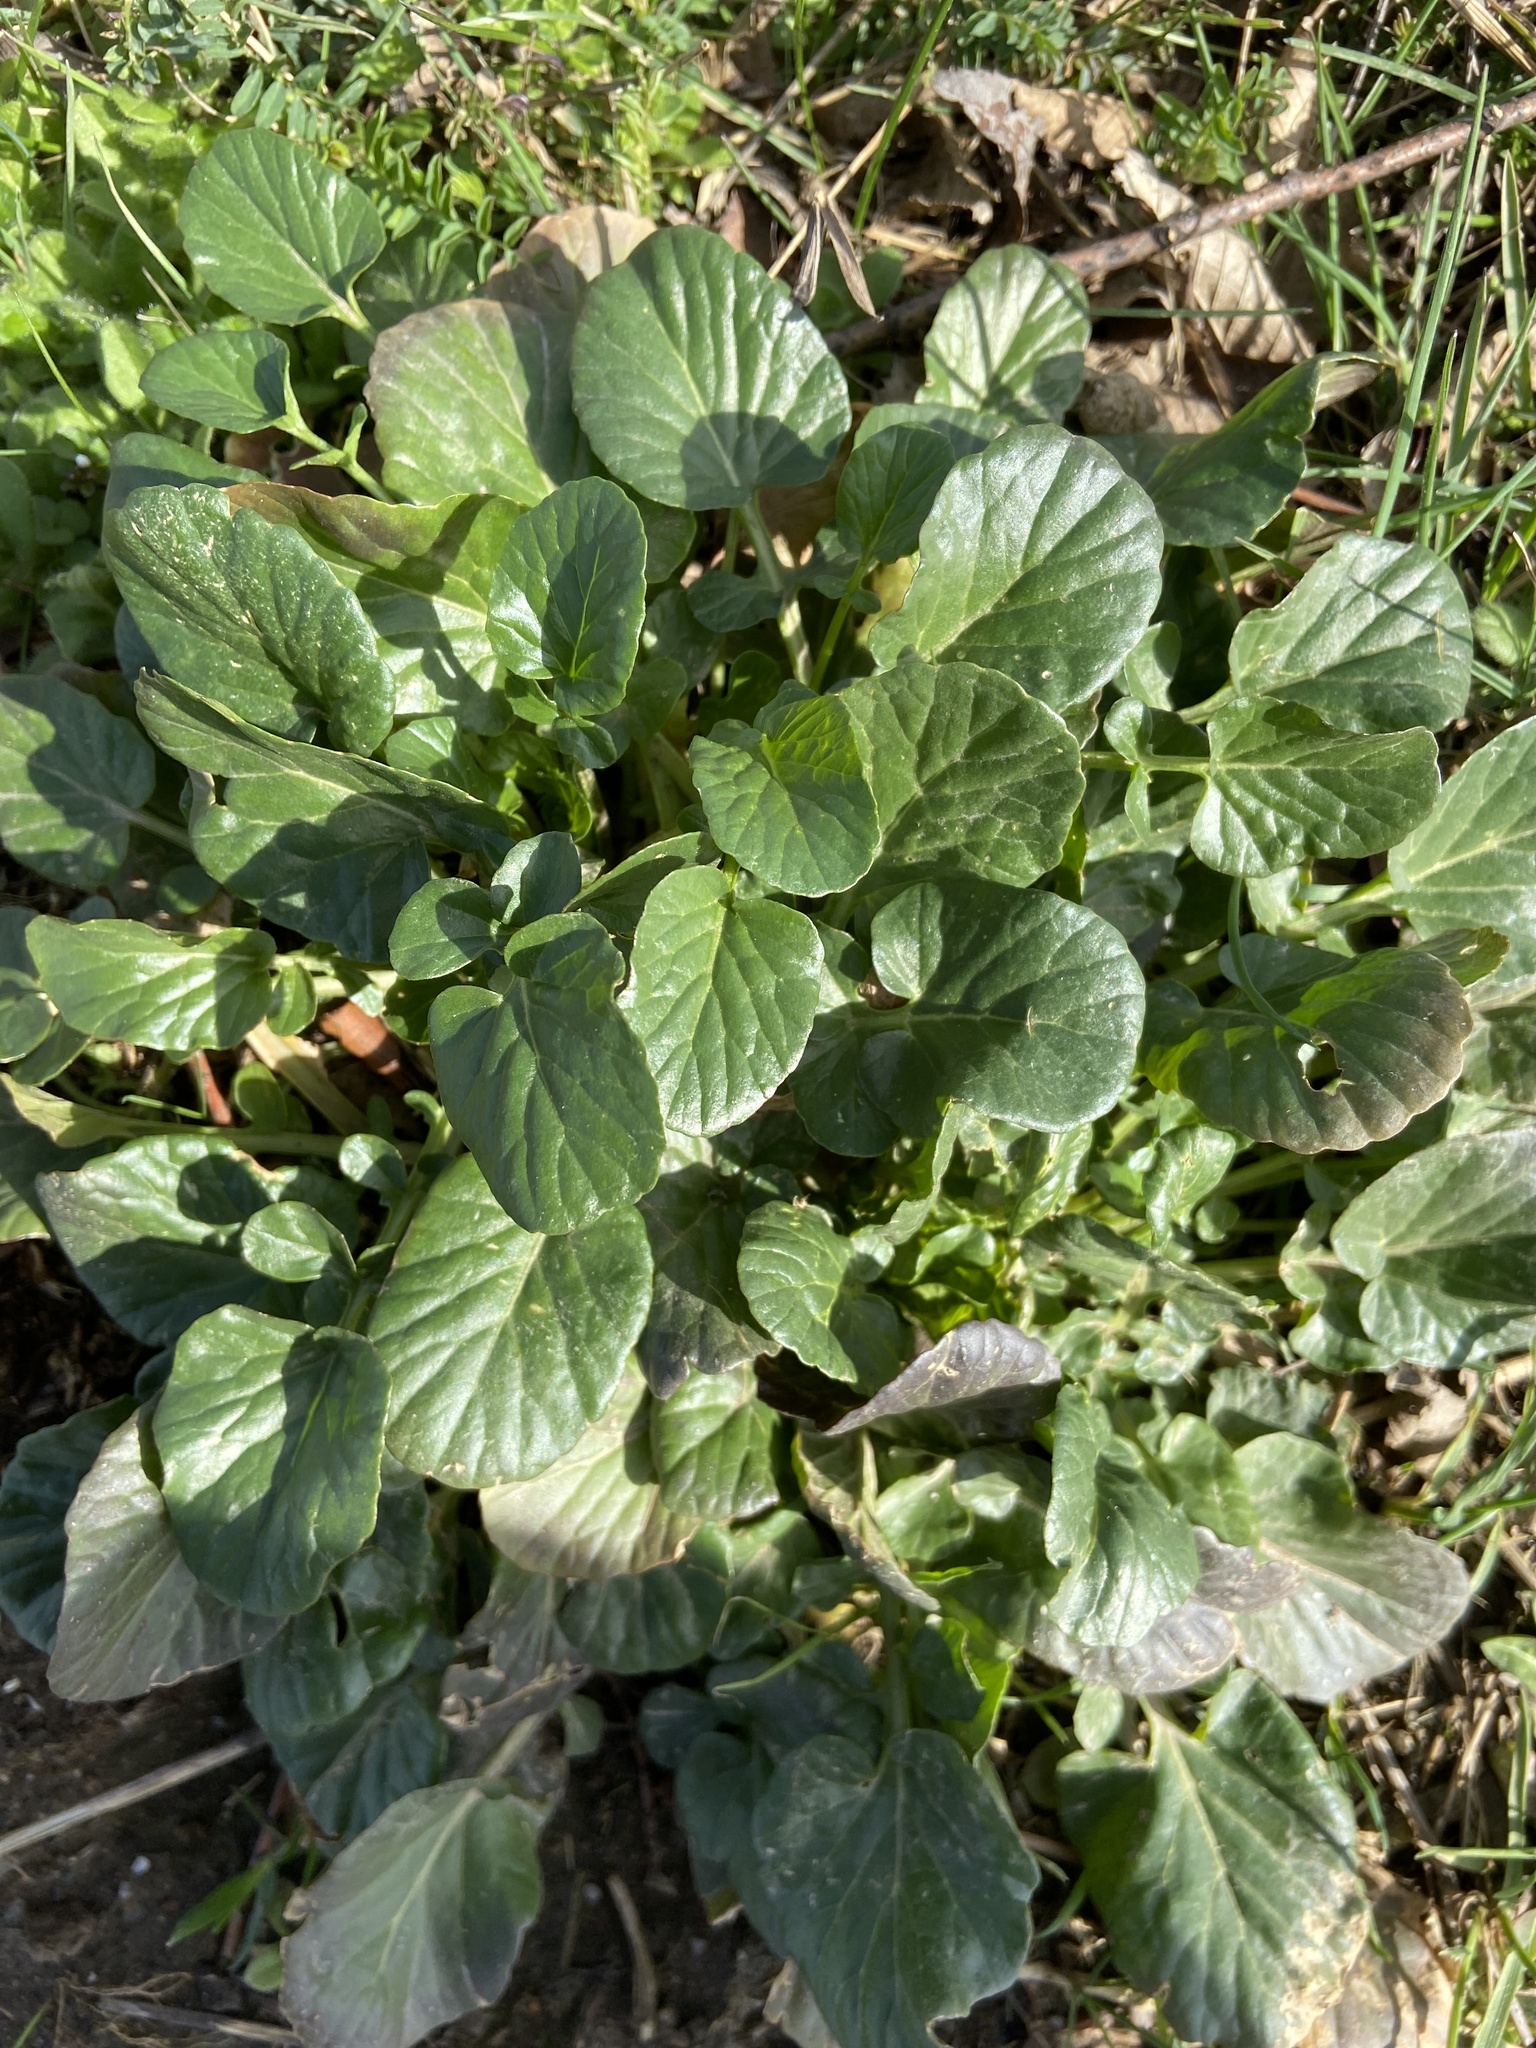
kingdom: Plantae
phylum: Tracheophyta
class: Magnoliopsida
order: Brassicales
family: Brassicaceae
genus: Barbarea
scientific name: Barbarea vulgaris
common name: Cressy-greens
